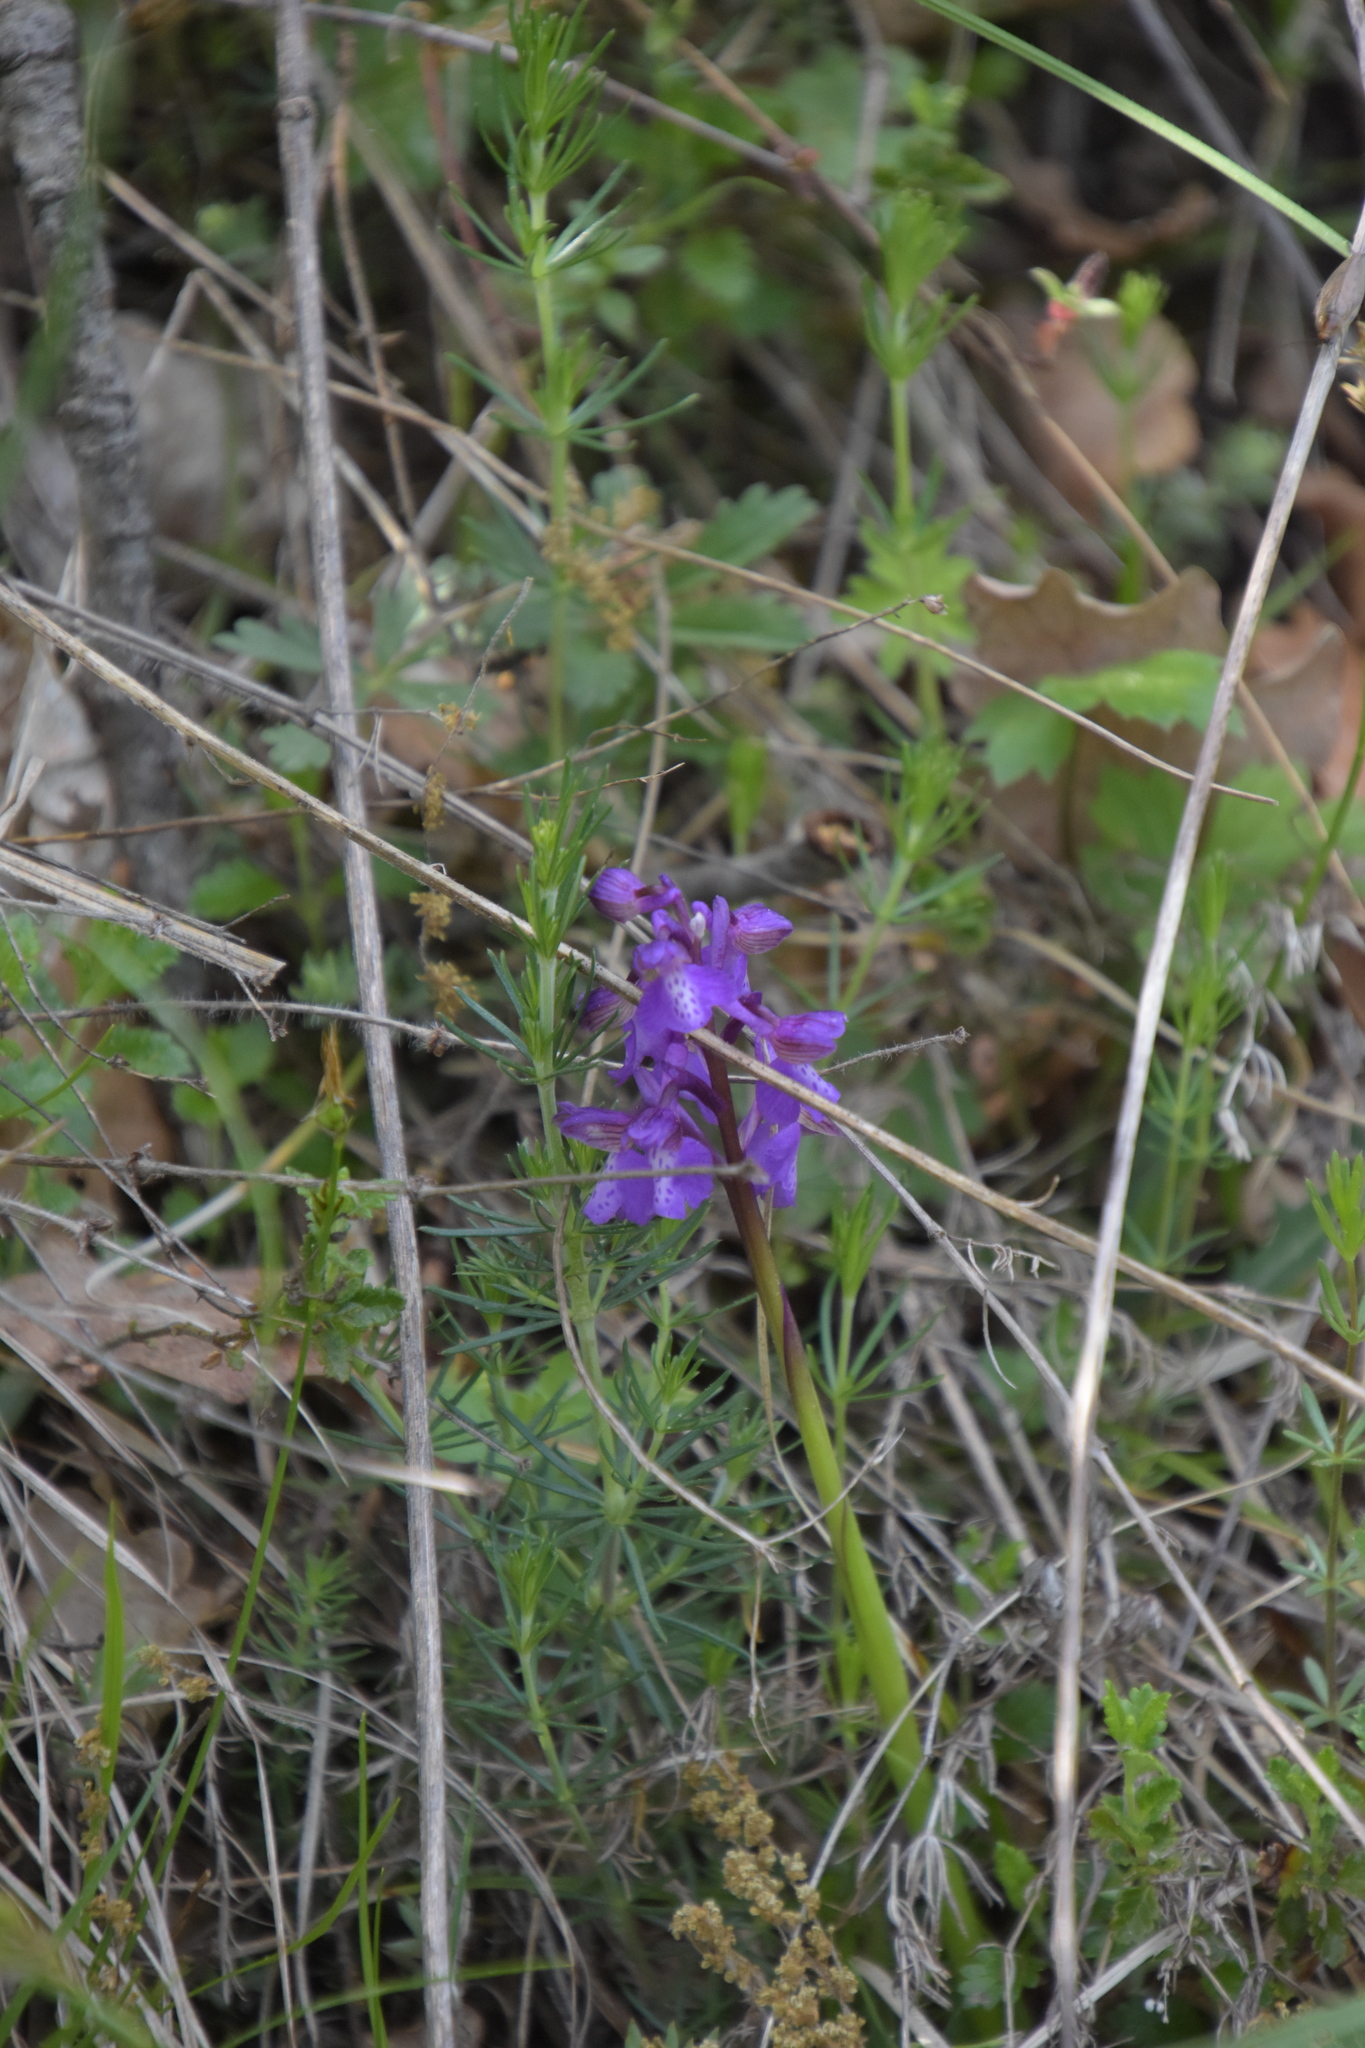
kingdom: Plantae
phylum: Tracheophyta
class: Liliopsida
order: Asparagales
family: Orchidaceae
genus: Anacamptis
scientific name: Anacamptis morio
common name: Green-winged orchid
